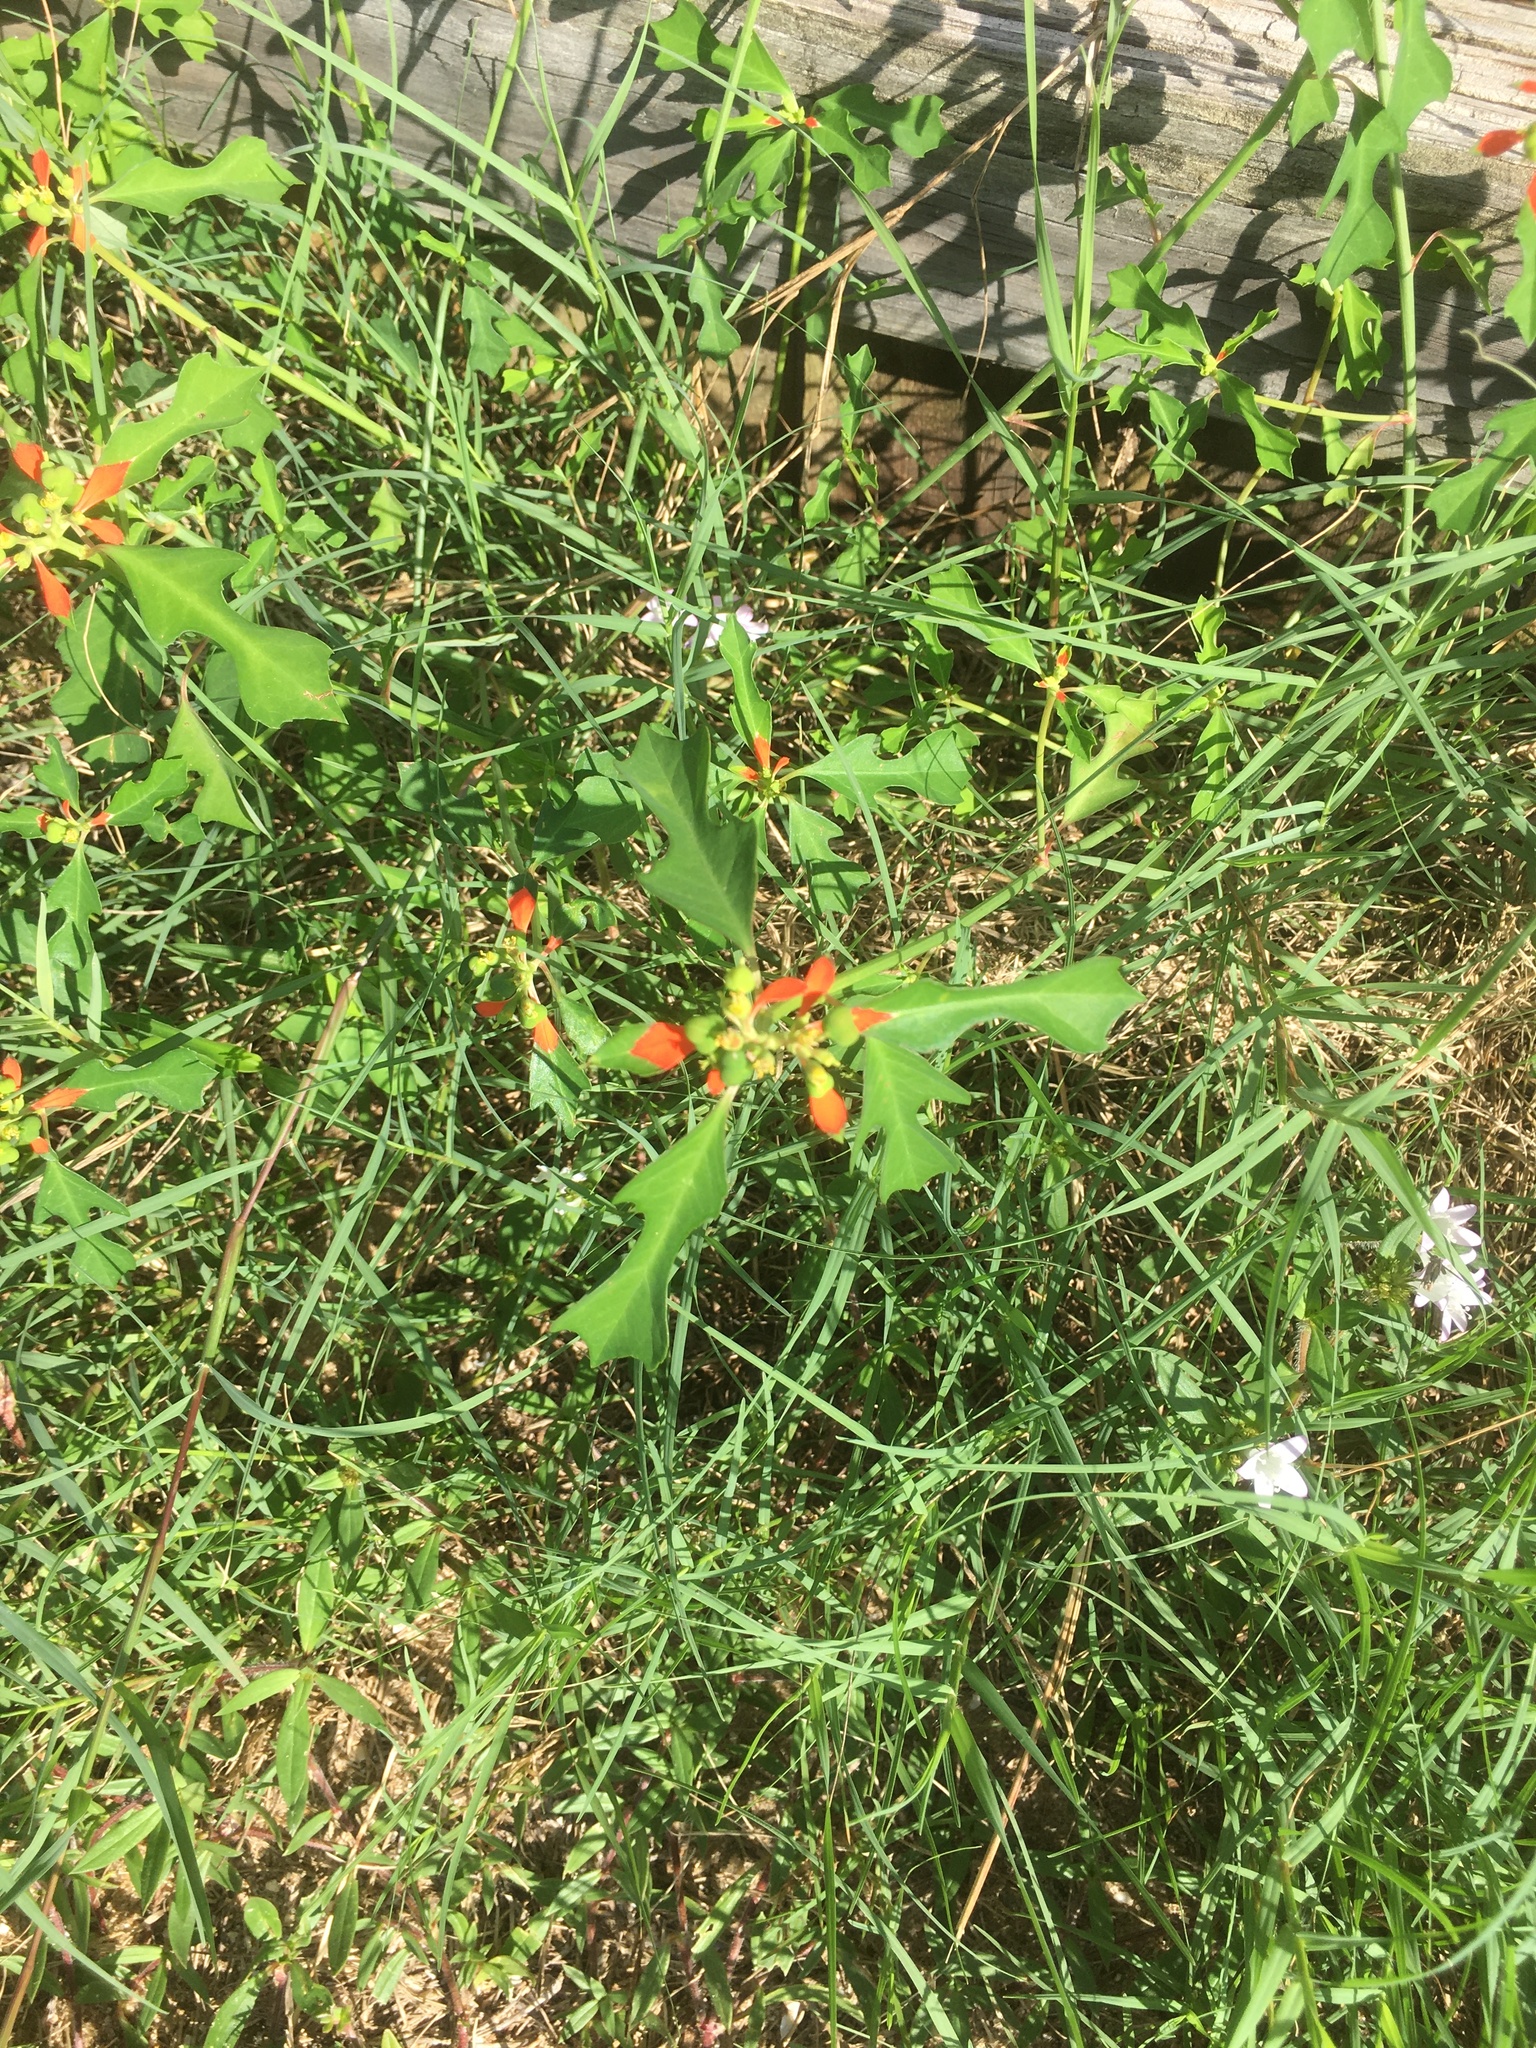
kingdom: Plantae
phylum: Tracheophyta
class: Magnoliopsida
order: Malpighiales
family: Euphorbiaceae
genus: Euphorbia
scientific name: Euphorbia heterophylla
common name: Mexican fireplant
